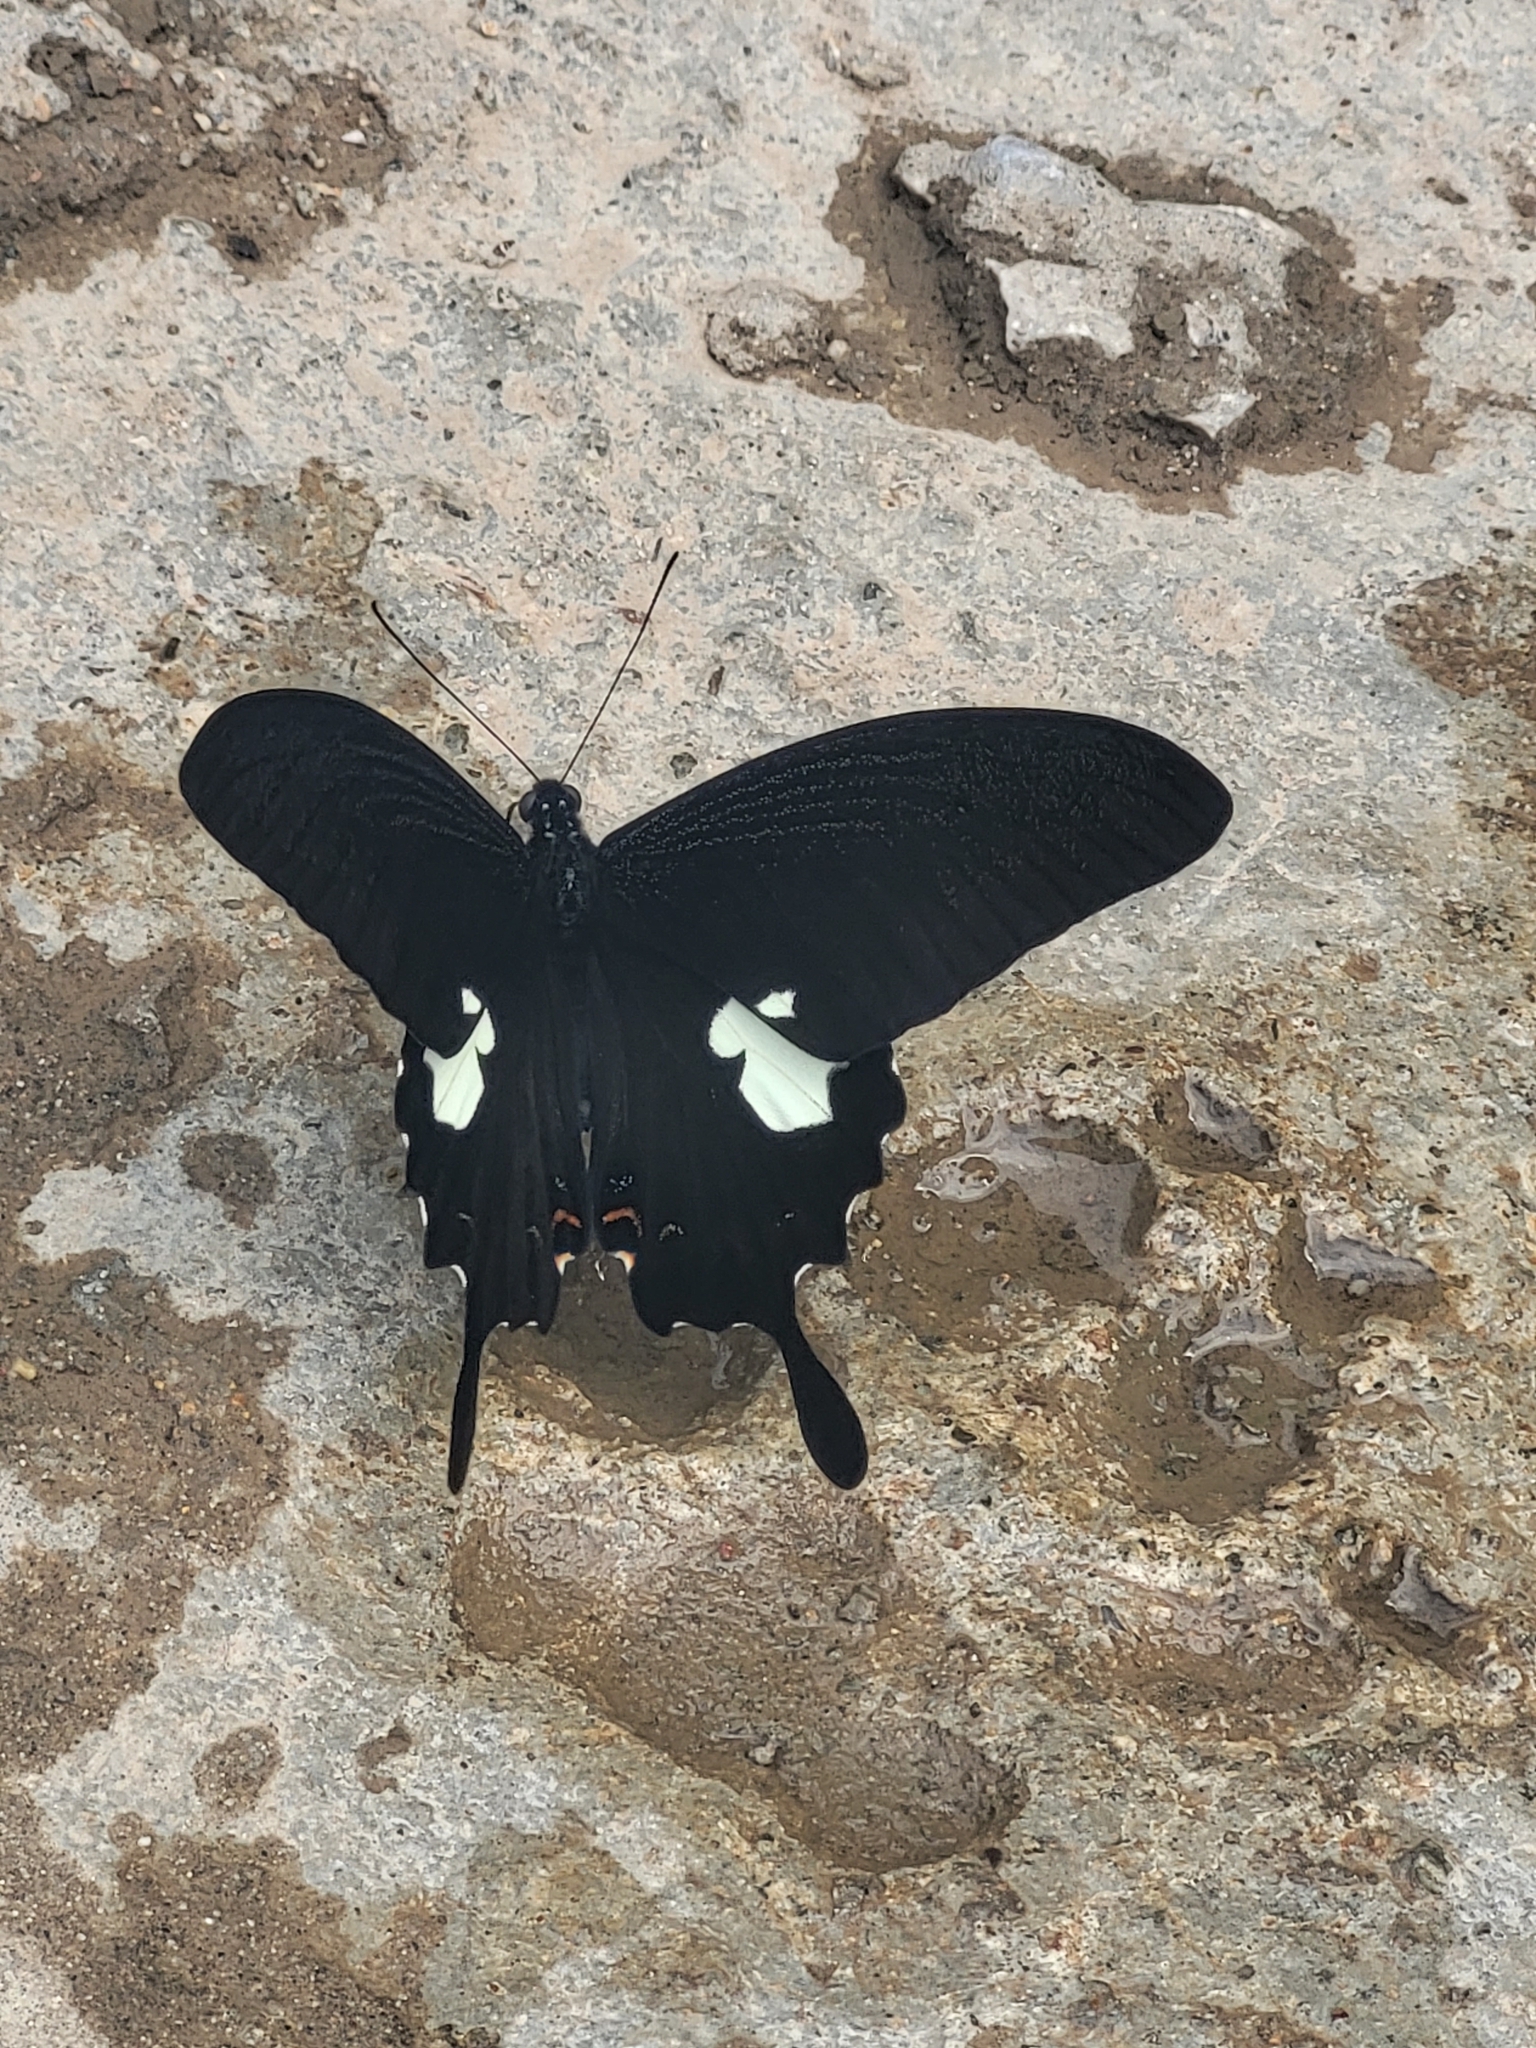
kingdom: Animalia
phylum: Arthropoda
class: Insecta
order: Lepidoptera
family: Papilionidae
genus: Papilio
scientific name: Papilio noblei
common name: Noble's helen
